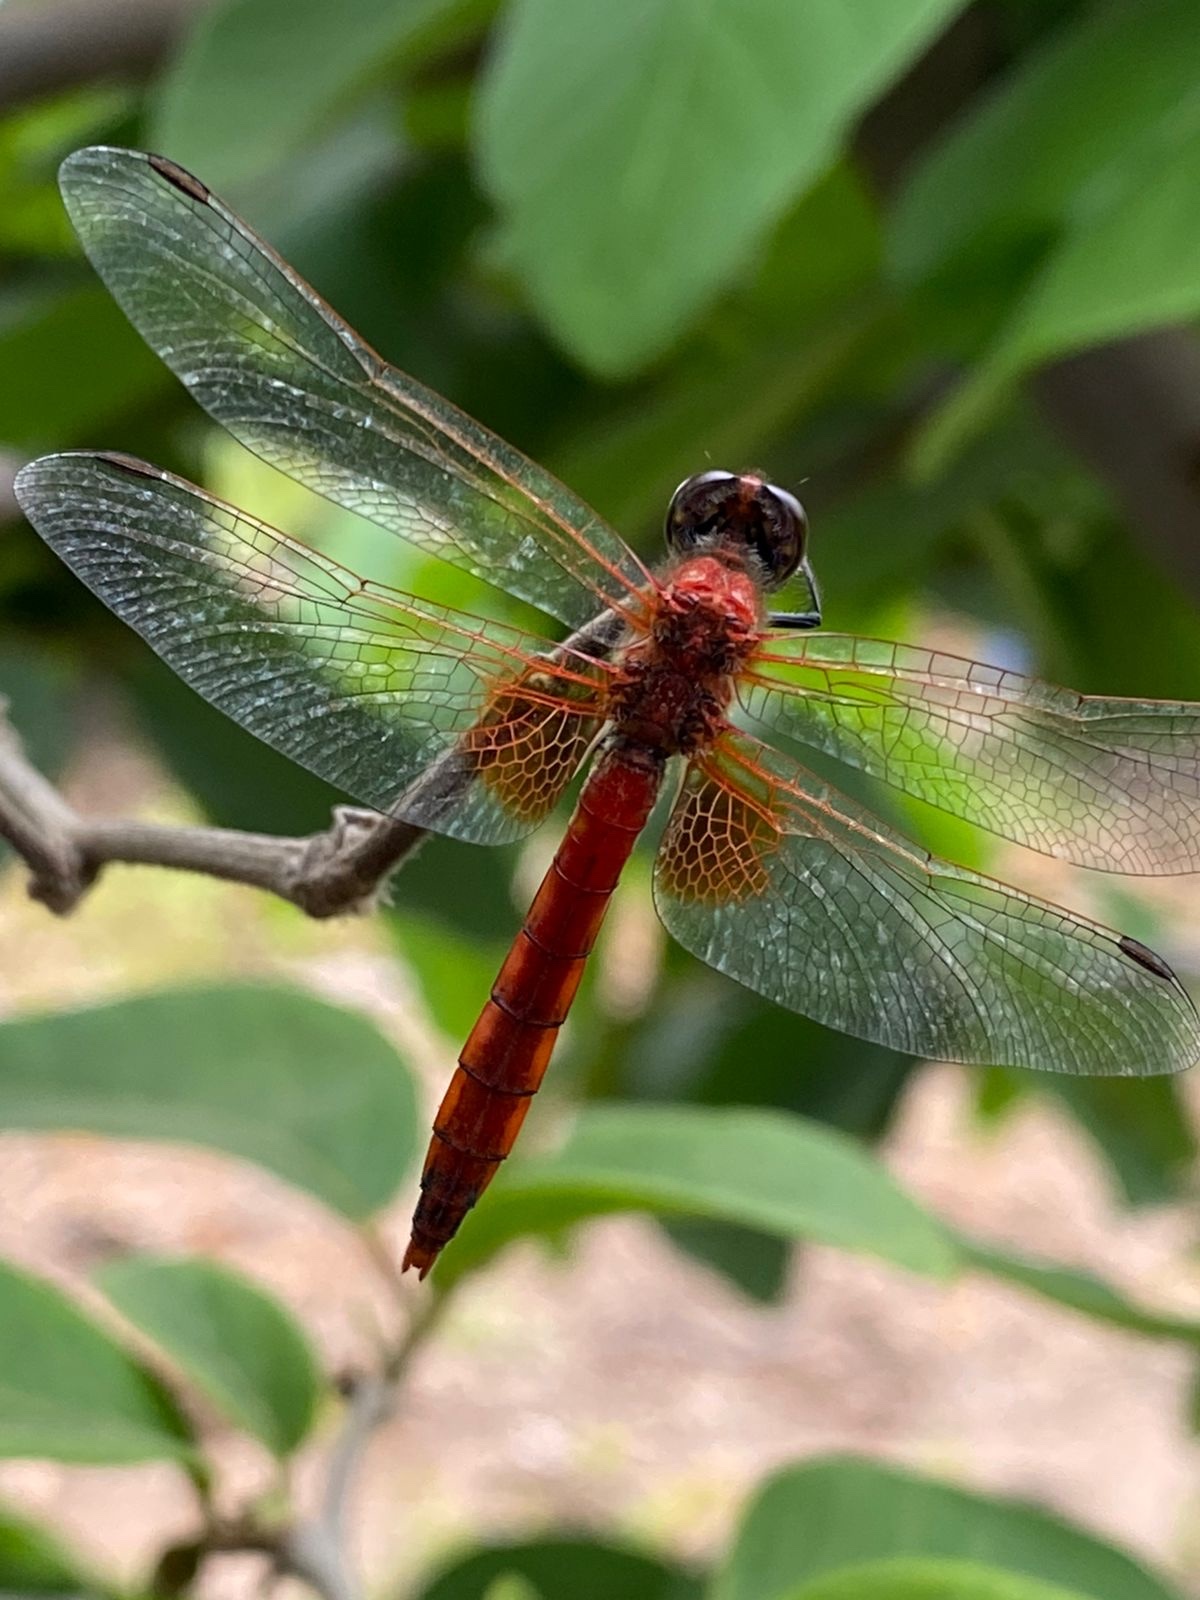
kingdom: Animalia
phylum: Arthropoda
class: Insecta
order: Odonata
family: Libellulidae
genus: Erythrodiplax
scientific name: Erythrodiplax corallina
